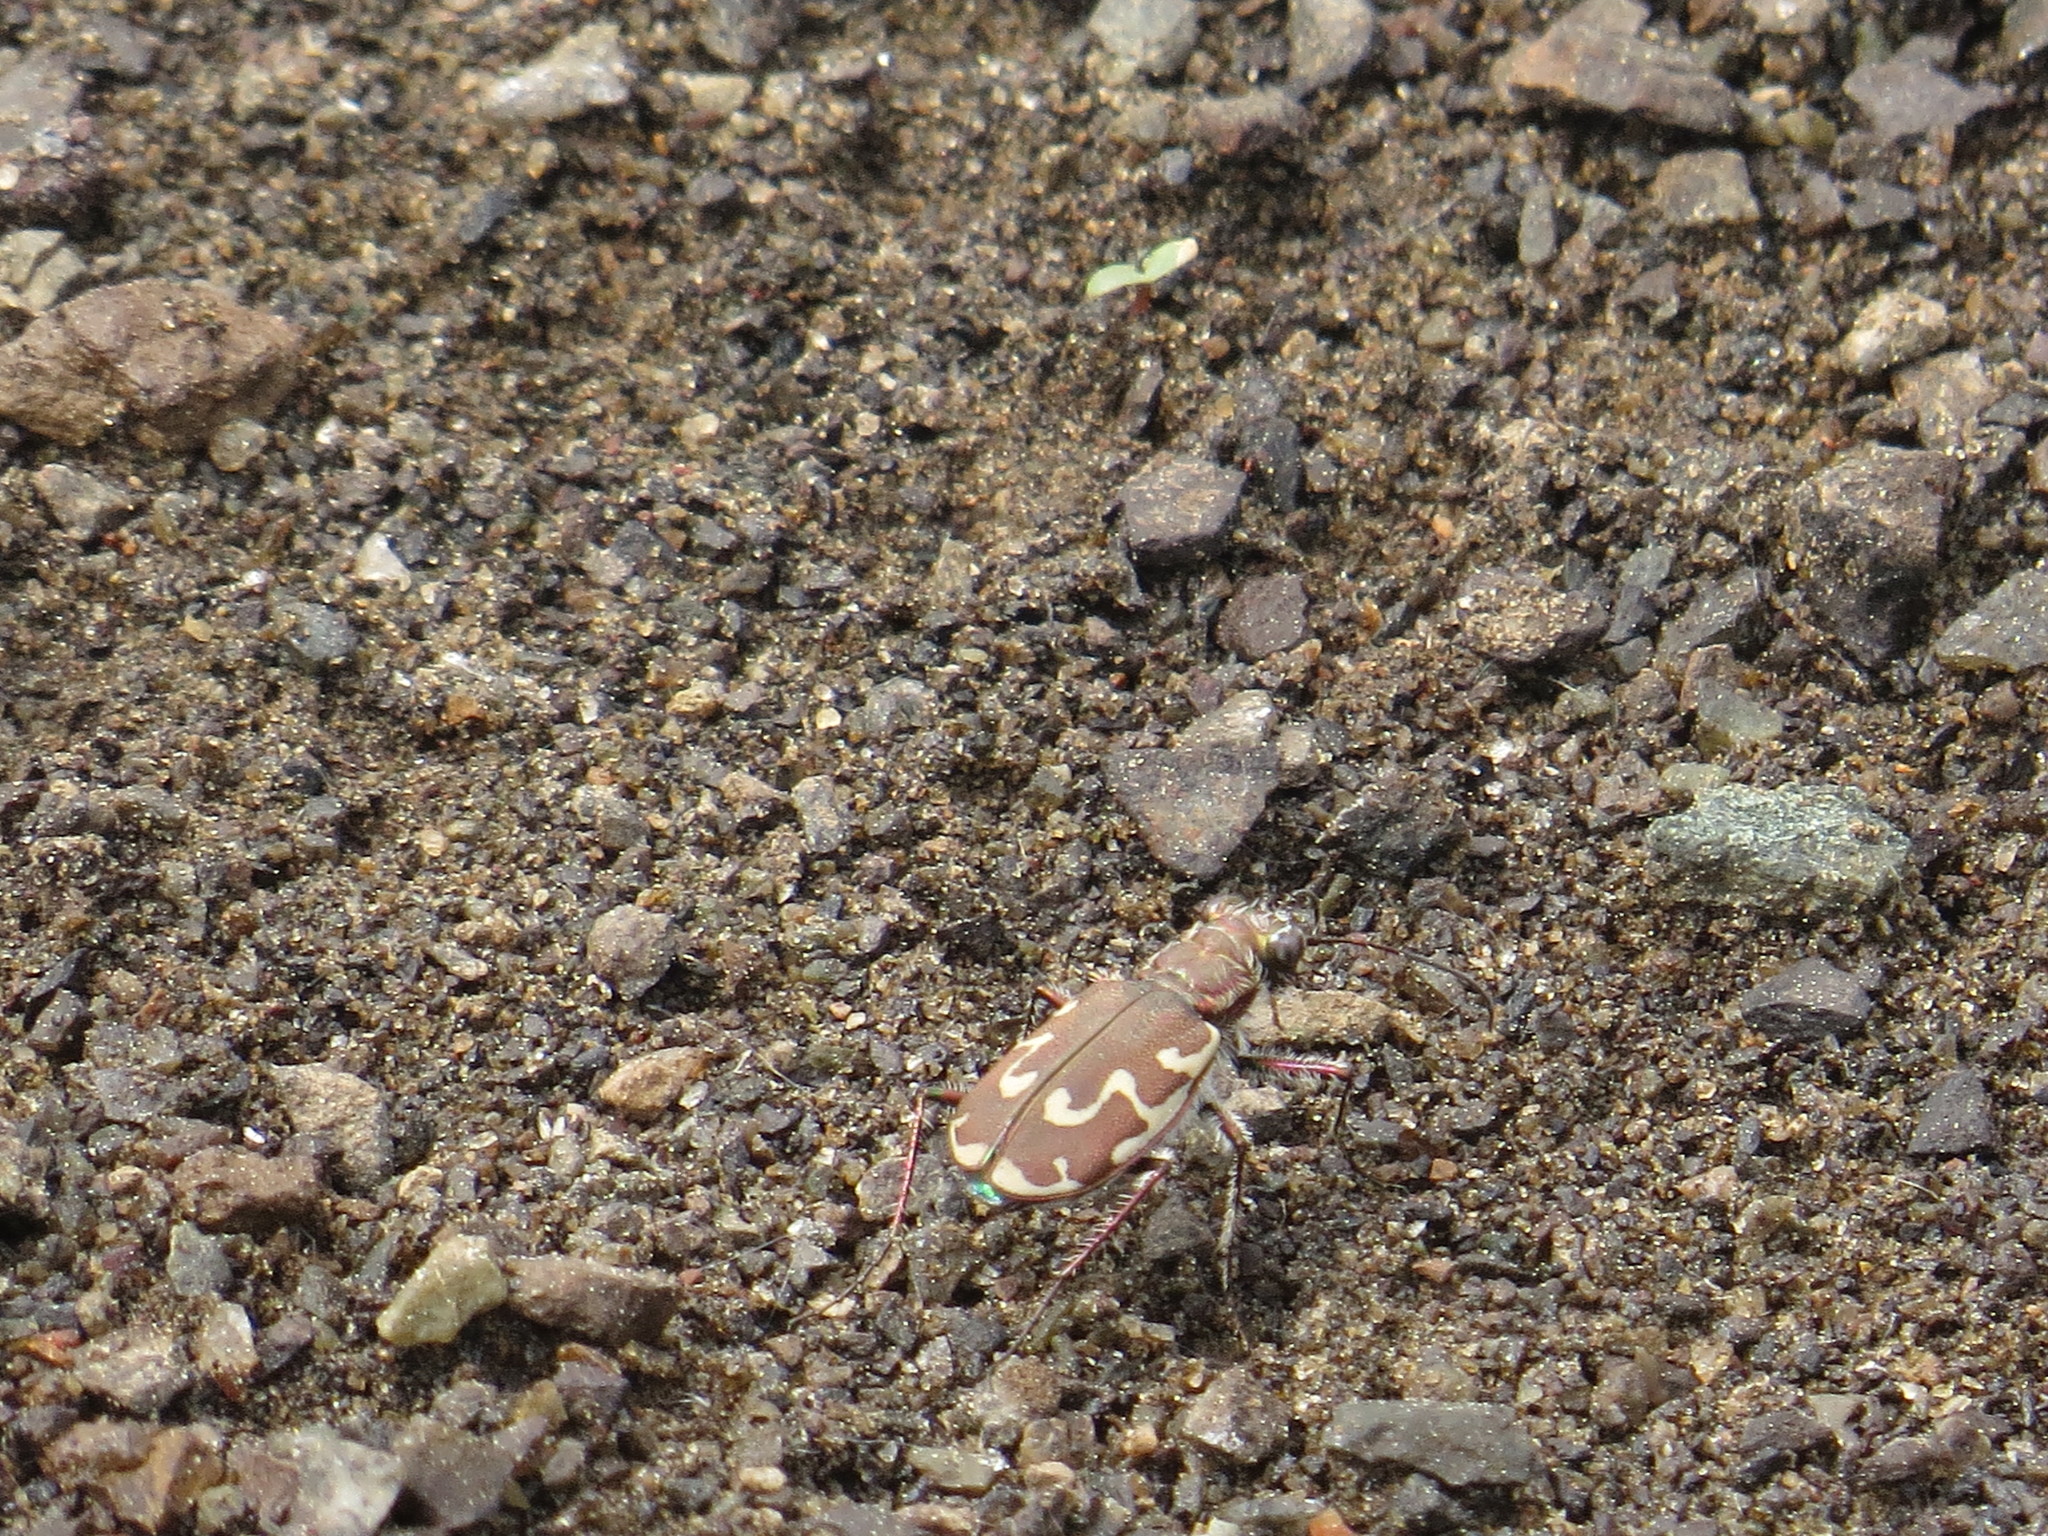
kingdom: Animalia
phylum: Arthropoda
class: Insecta
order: Coleoptera
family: Carabidae
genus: Cicindela
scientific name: Cicindela repanda
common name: Bronzed tiger beetle
